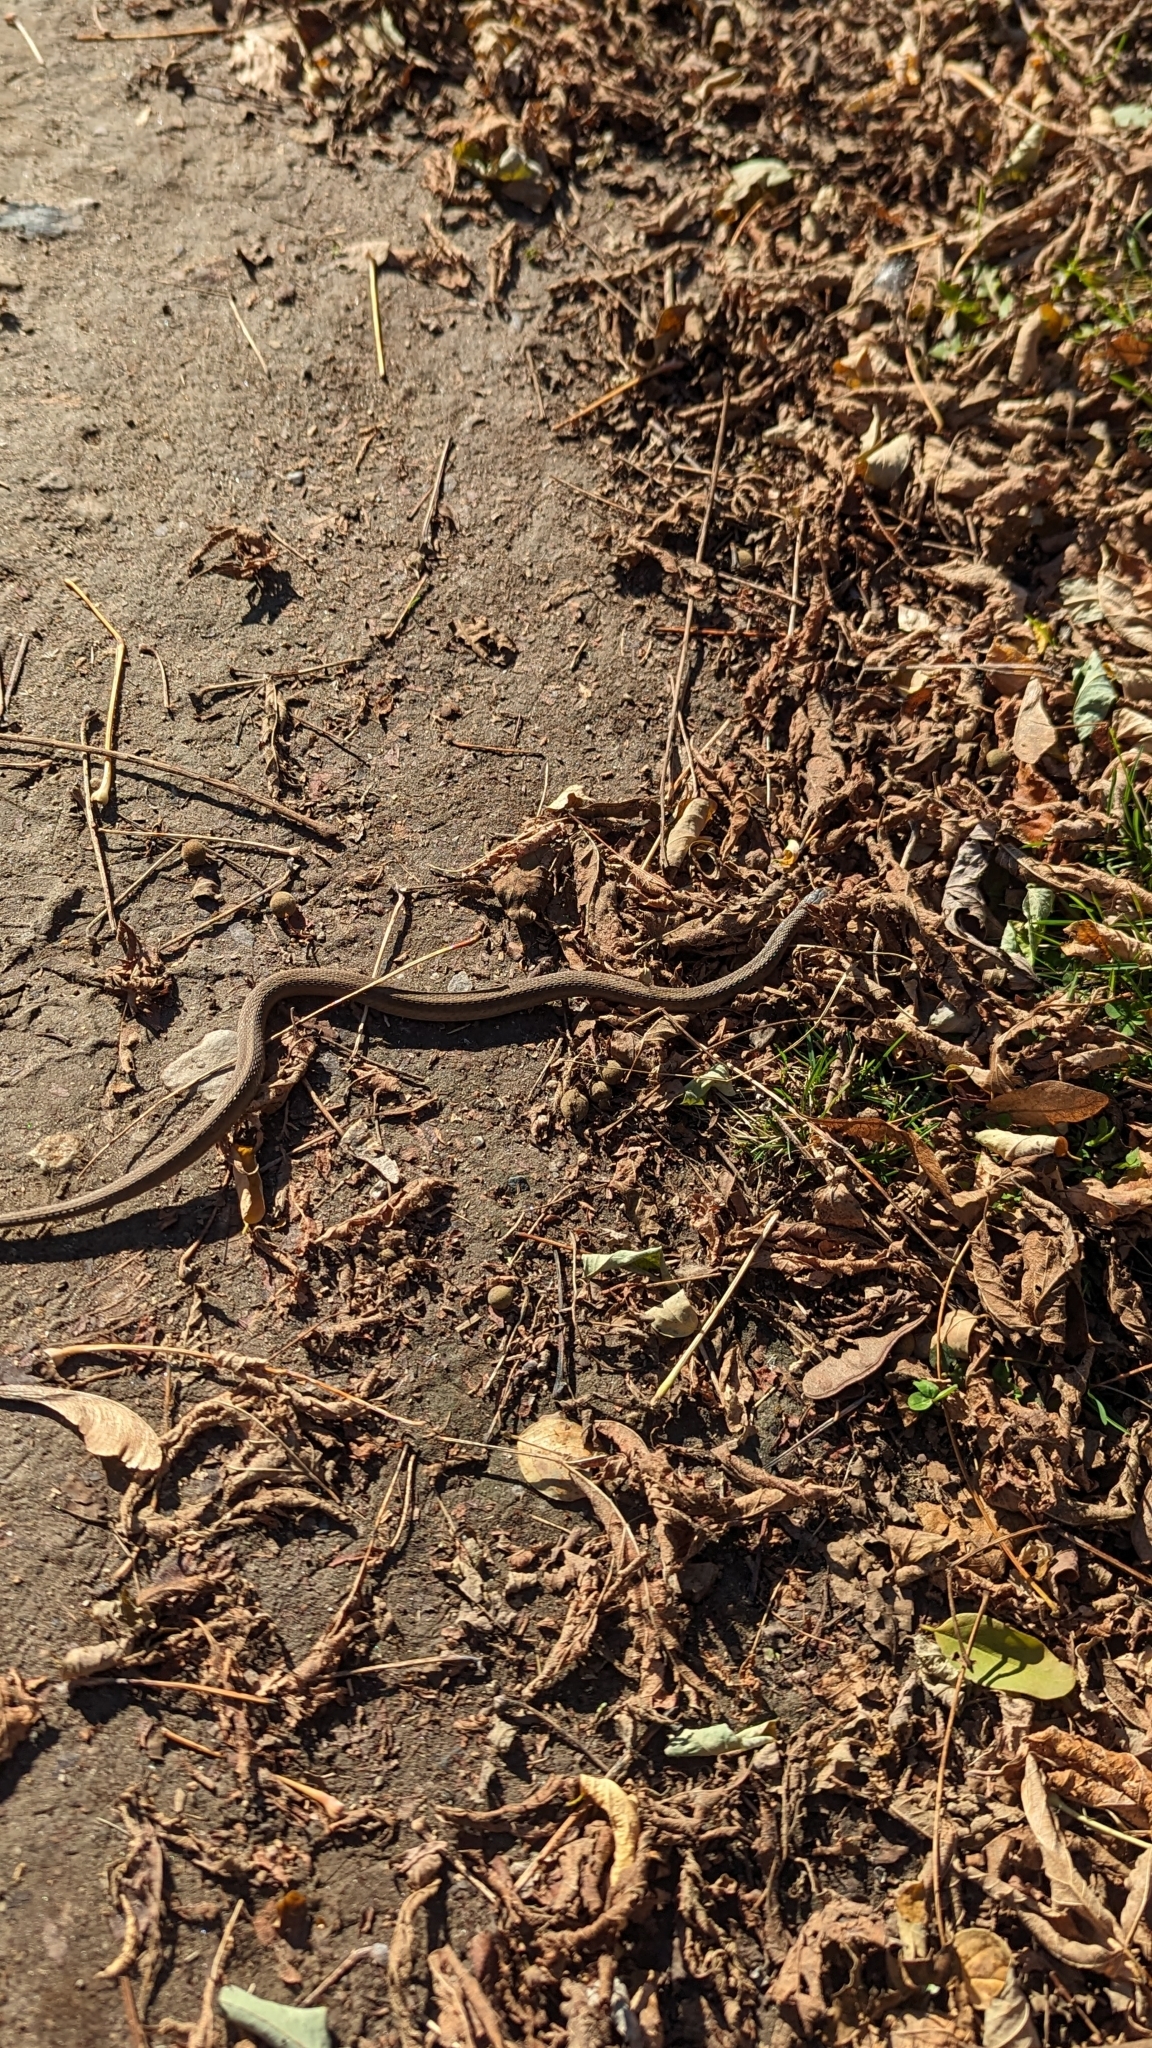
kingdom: Animalia
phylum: Chordata
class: Squamata
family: Colubridae
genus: Storeria
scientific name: Storeria dekayi
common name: (dekay’s) brown snake
